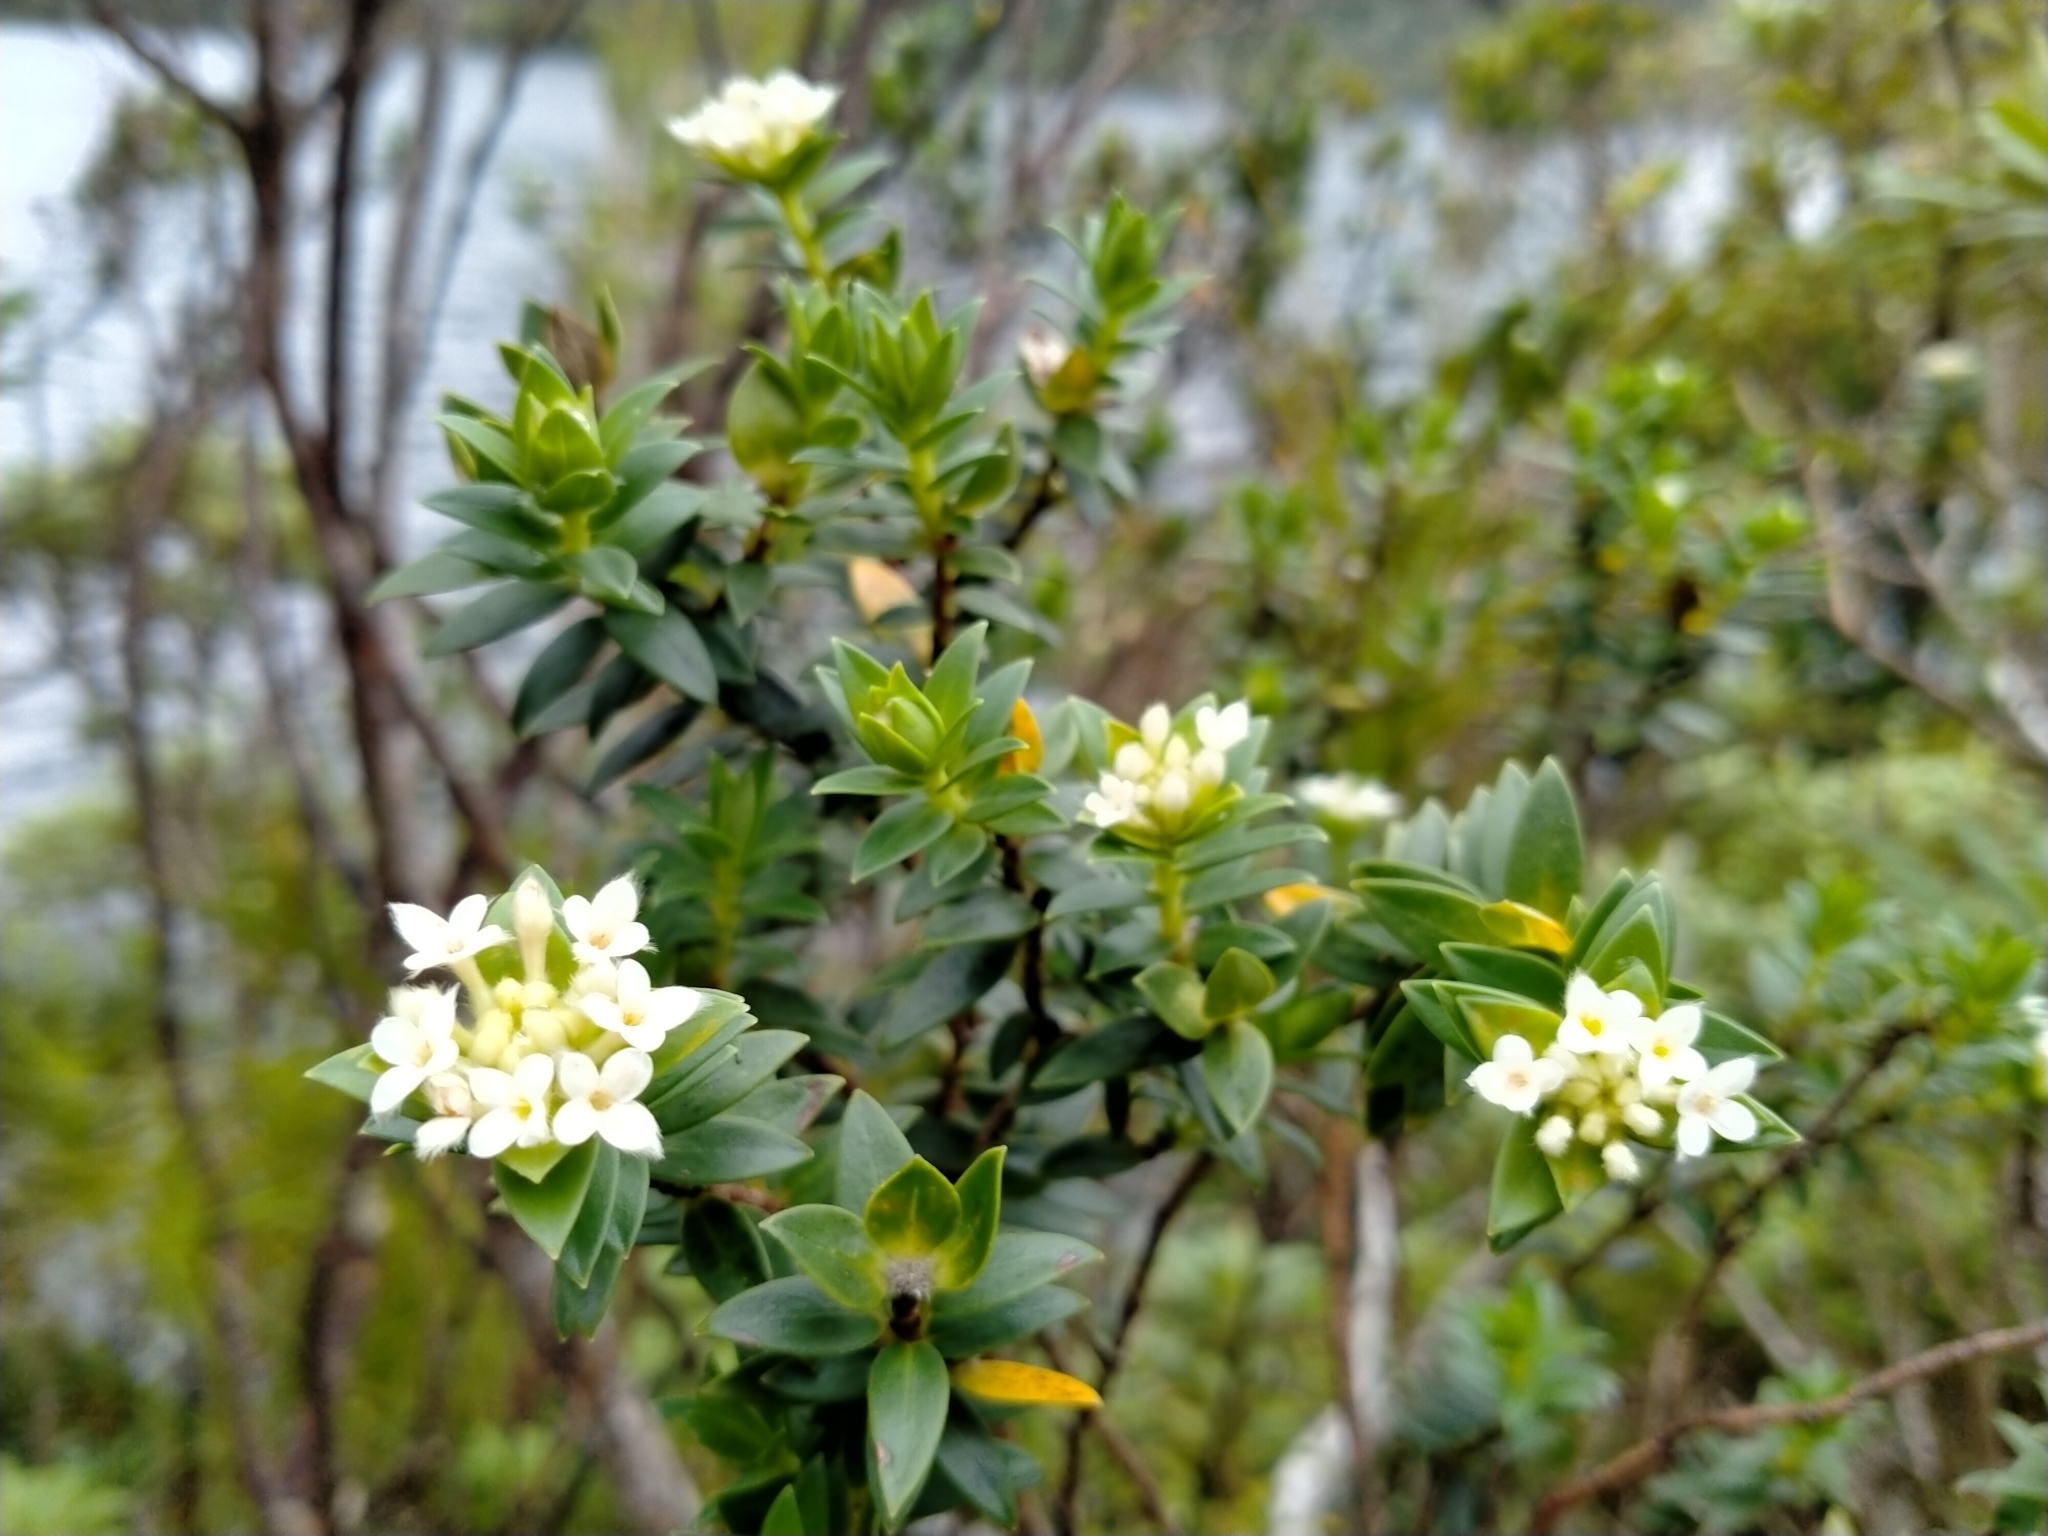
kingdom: Plantae
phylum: Tracheophyta
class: Magnoliopsida
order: Malvales
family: Thymelaeaceae
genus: Pimelea
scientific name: Pimelea gnidia
